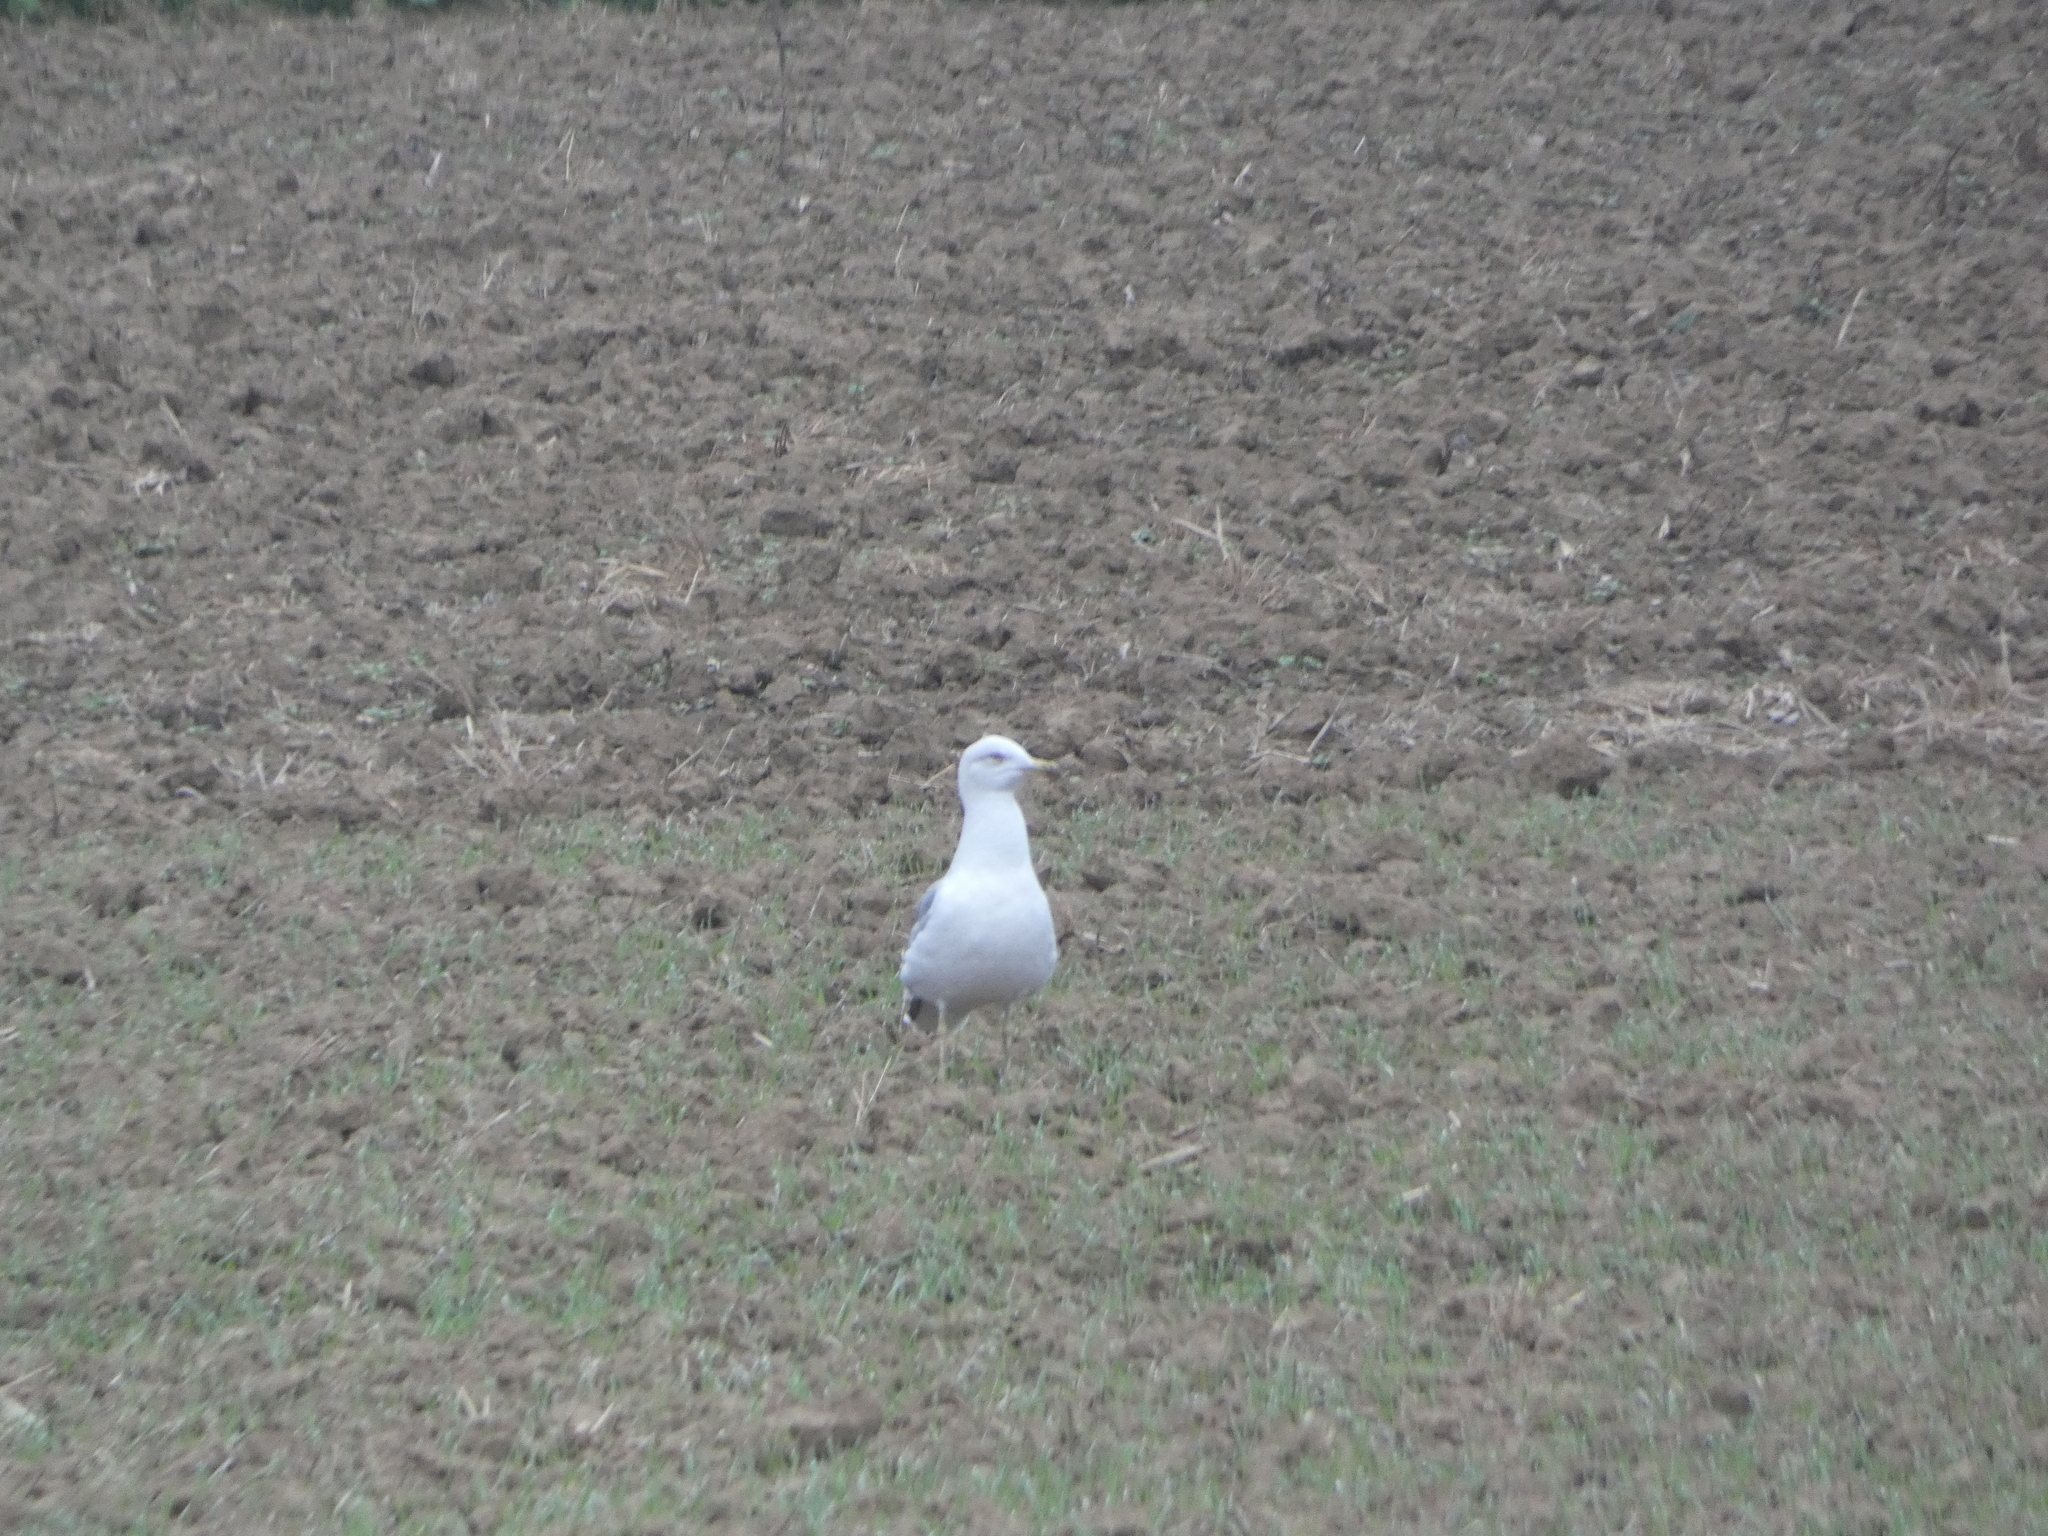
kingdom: Animalia
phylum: Chordata
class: Aves
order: Charadriiformes
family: Laridae
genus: Larus
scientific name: Larus cachinnans
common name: Caspian gull
